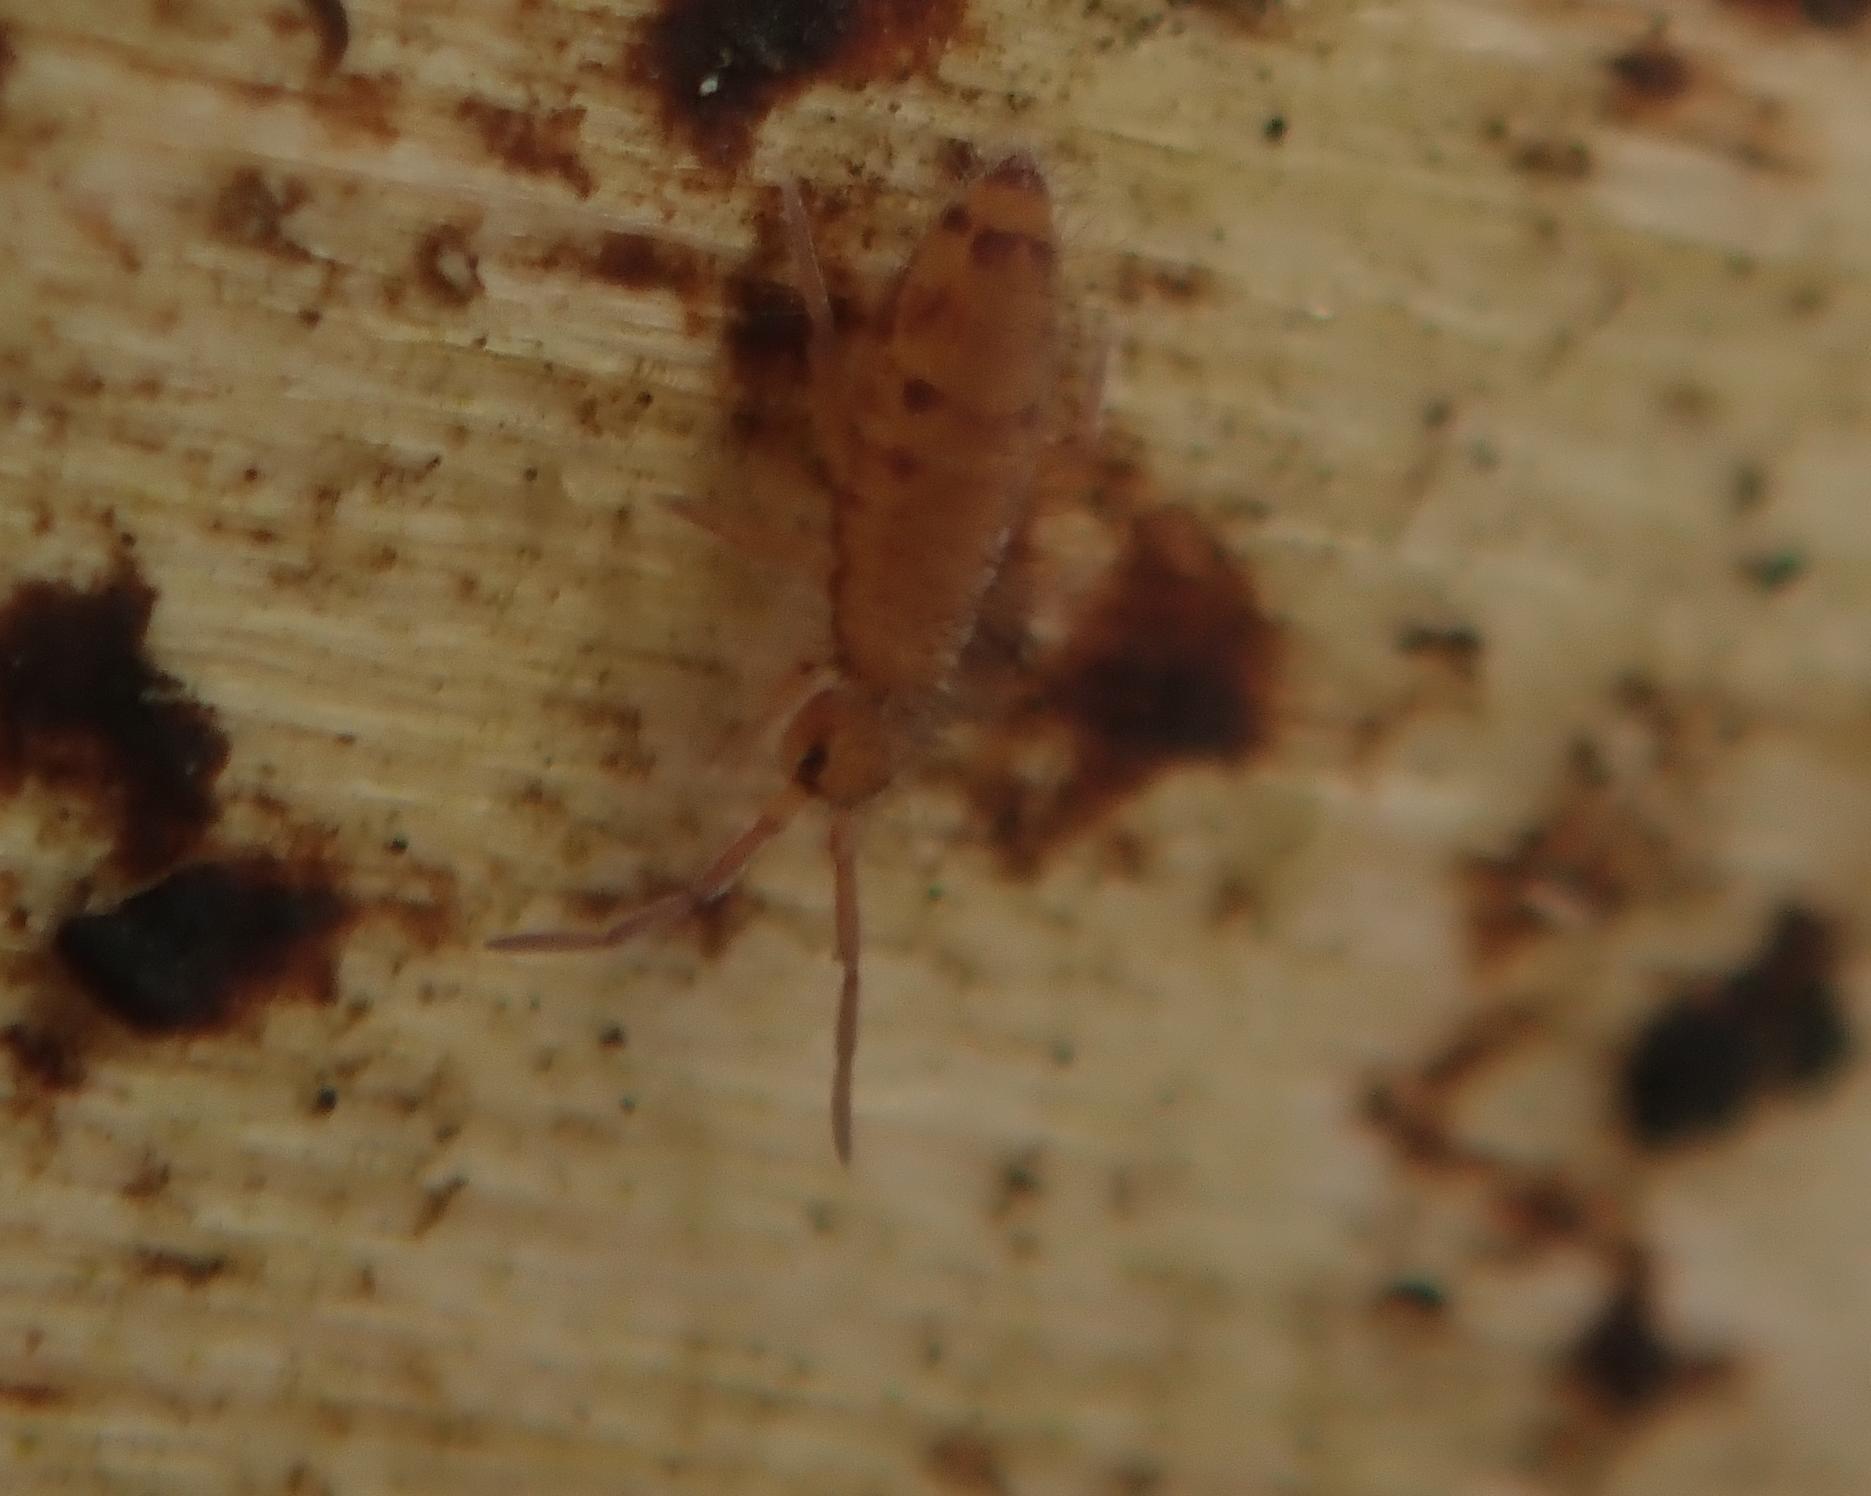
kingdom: Animalia
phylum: Arthropoda
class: Collembola
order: Entomobryomorpha
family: Entomobryidae
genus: Entomobrya
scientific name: Entomobrya multifasciata
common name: Springtail
